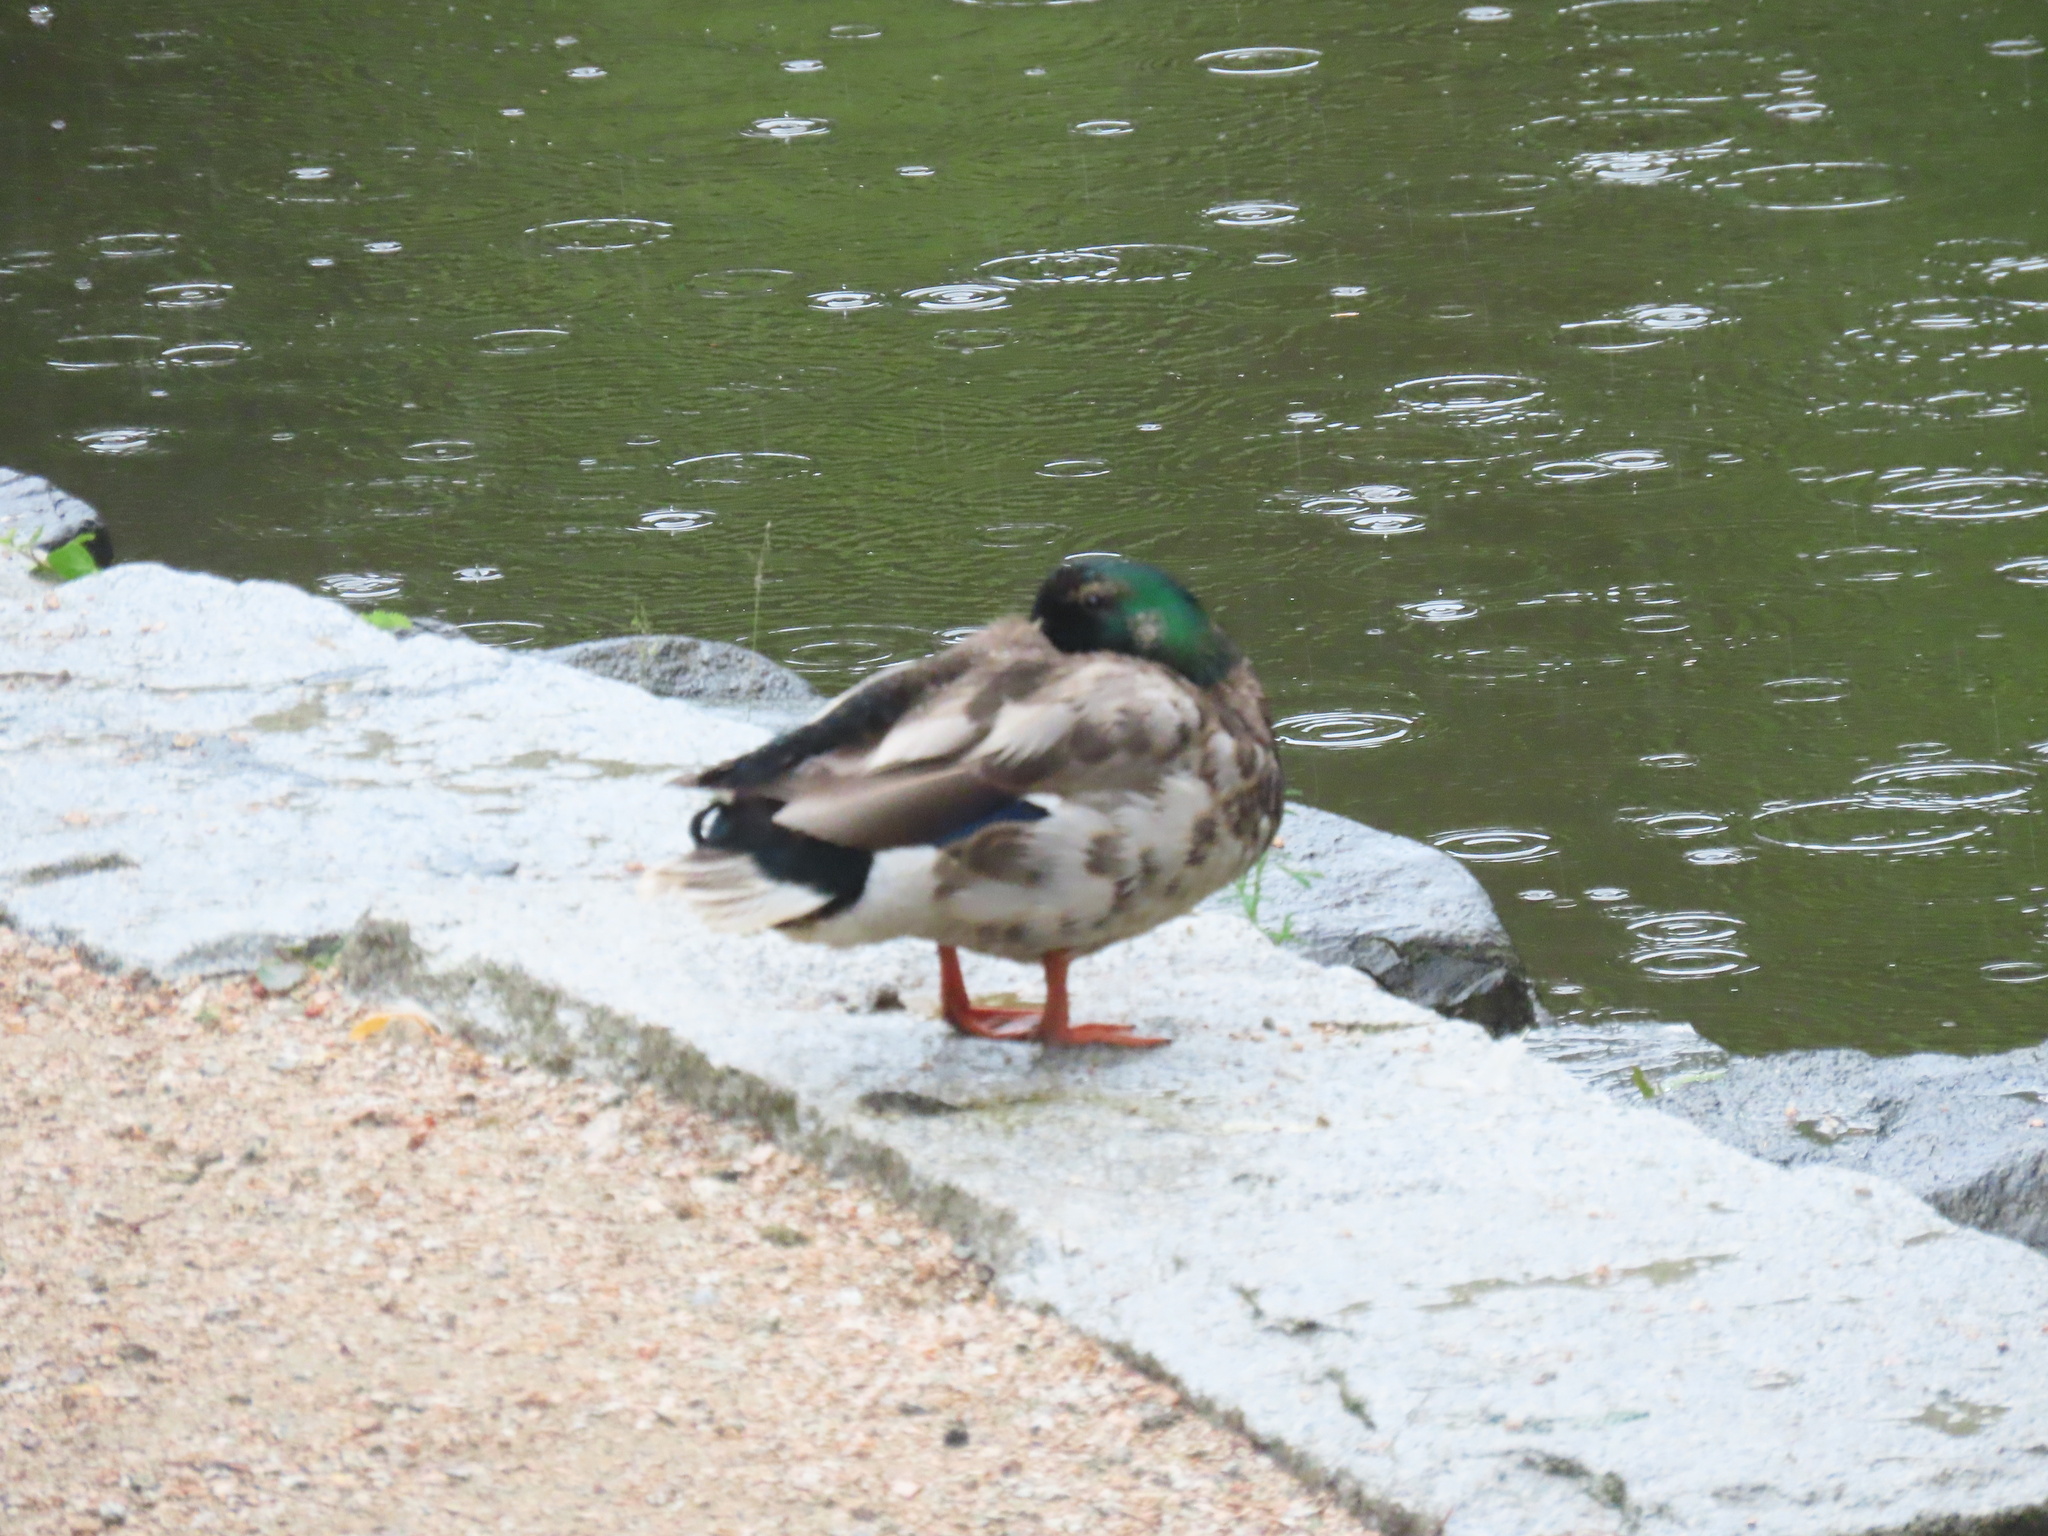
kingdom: Animalia
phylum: Chordata
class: Aves
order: Anseriformes
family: Anatidae
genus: Anas
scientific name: Anas platyrhynchos
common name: Mallard
